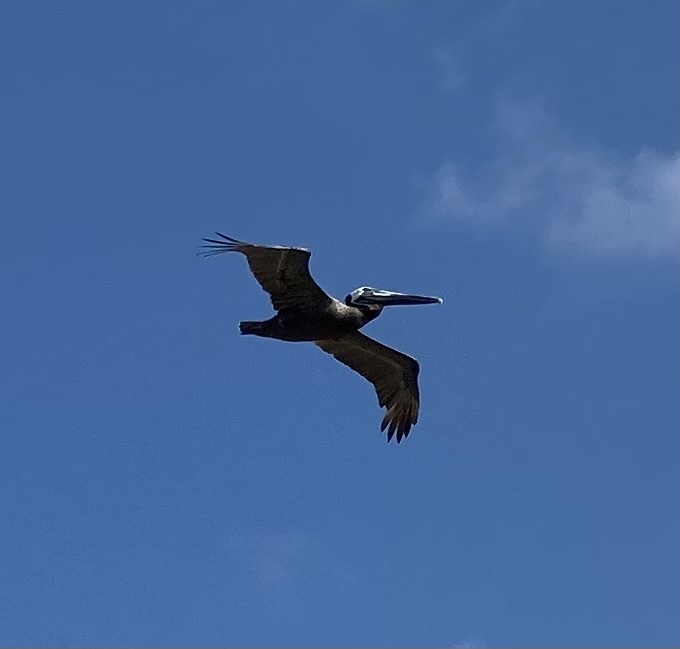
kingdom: Animalia
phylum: Chordata
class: Aves
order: Pelecaniformes
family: Pelecanidae
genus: Pelecanus
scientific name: Pelecanus occidentalis
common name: Brown pelican
